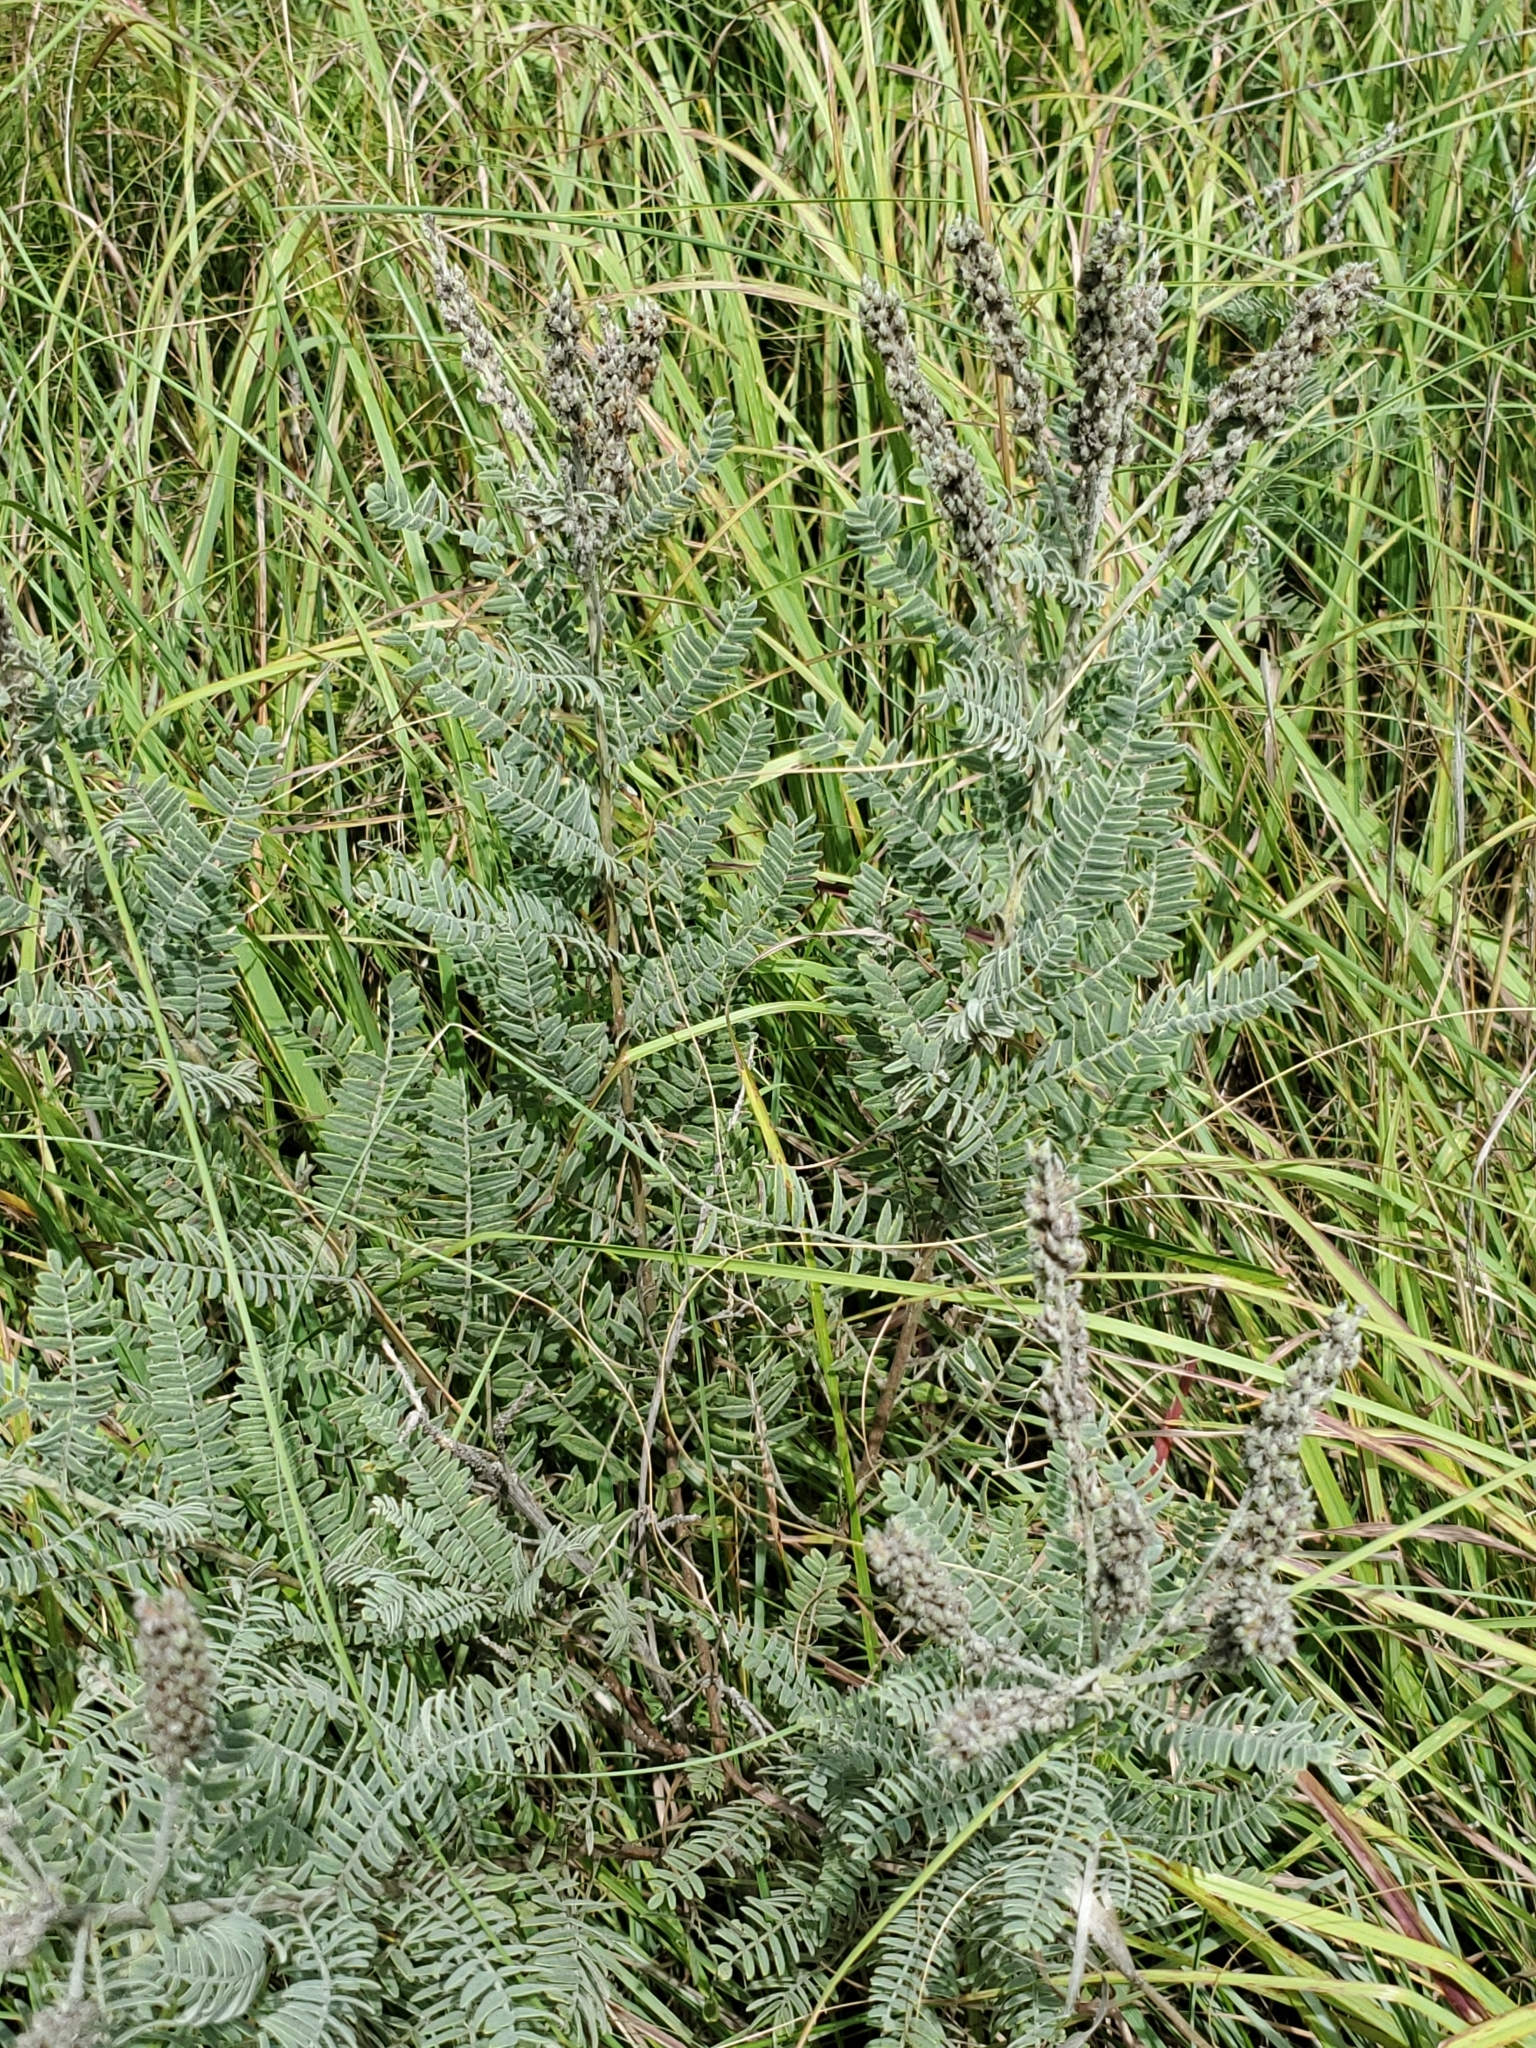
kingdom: Plantae
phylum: Tracheophyta
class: Magnoliopsida
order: Fabales
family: Fabaceae
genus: Amorpha
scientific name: Amorpha canescens
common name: Leadplant
